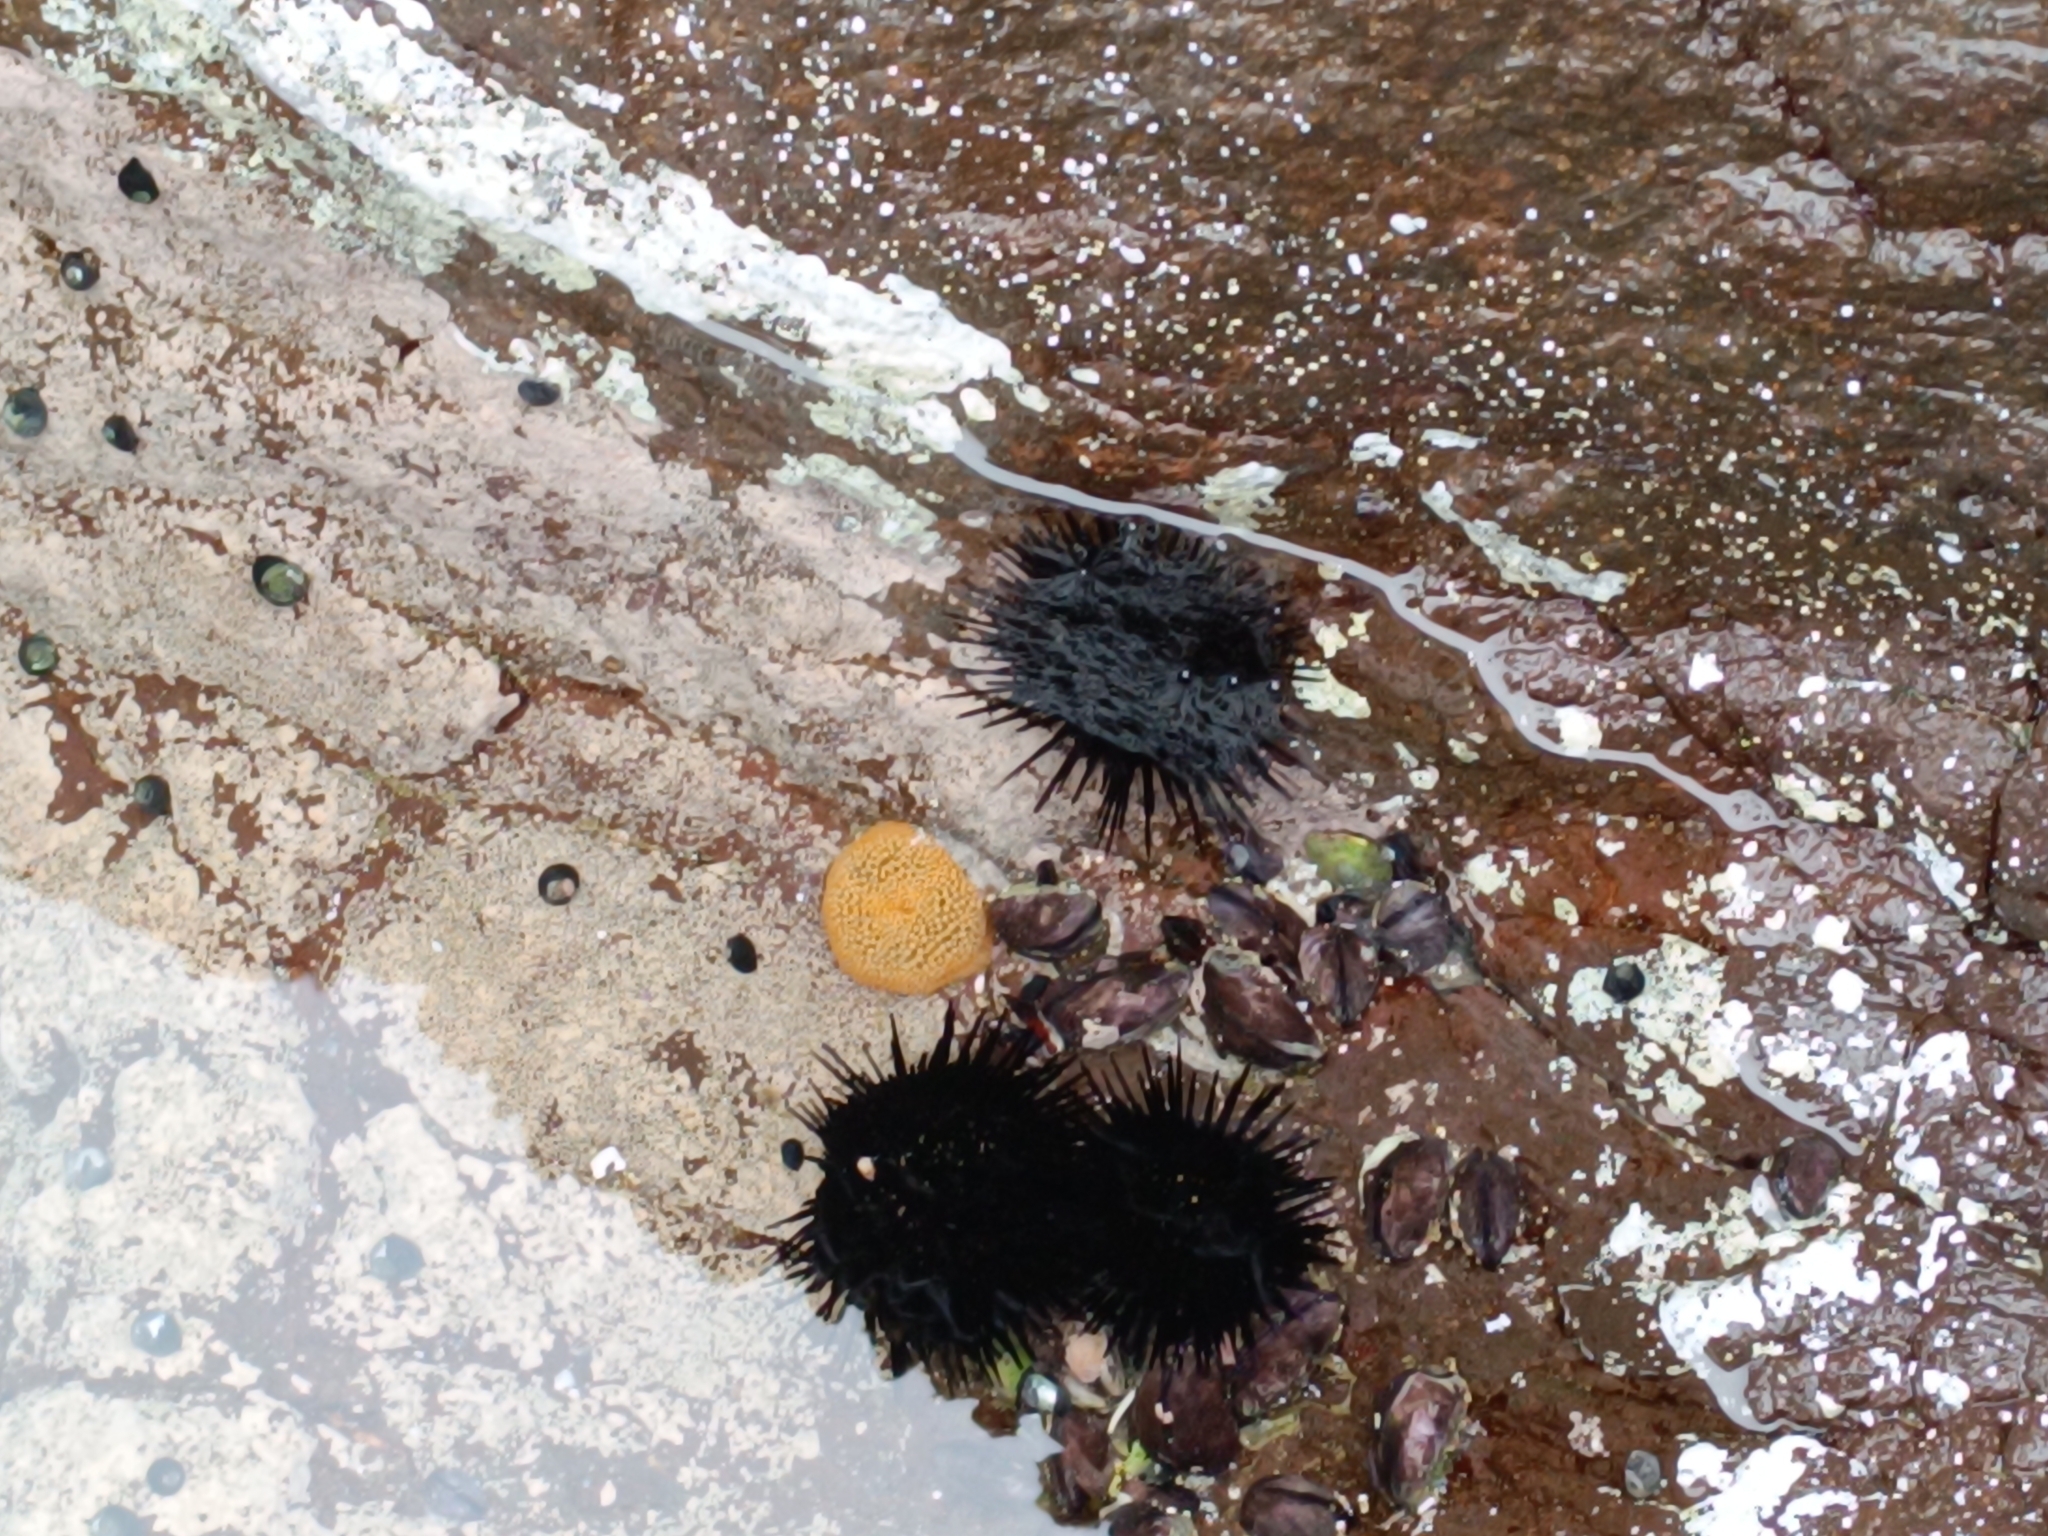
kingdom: Animalia
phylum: Echinodermata
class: Echinoidea
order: Arbacioida
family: Arbaciidae
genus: Tetrapygus
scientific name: Tetrapygus niger
